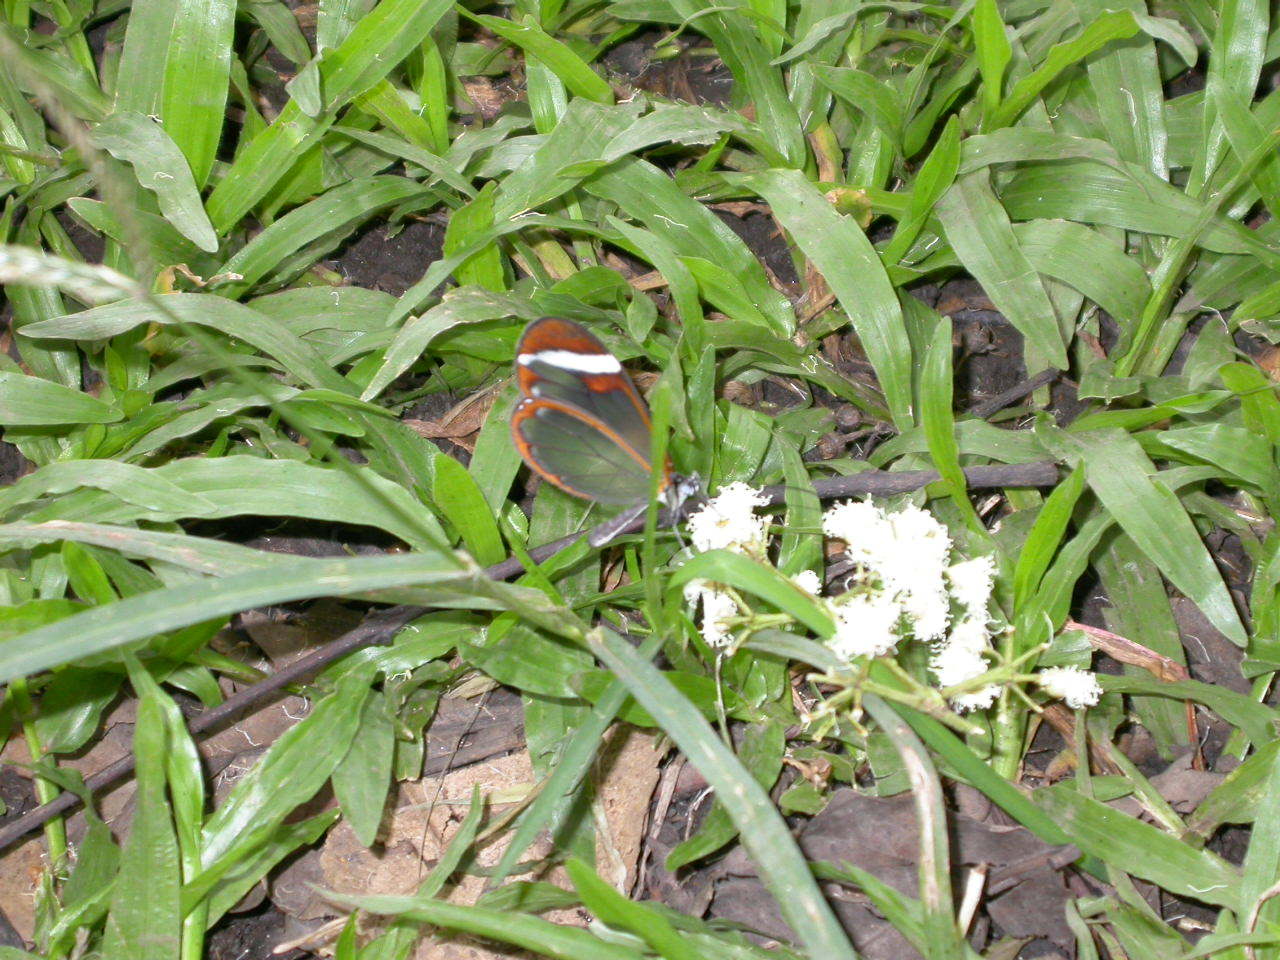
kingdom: Animalia
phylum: Arthropoda
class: Insecta
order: Lepidoptera
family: Nymphalidae
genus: Greta
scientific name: Greta morgane
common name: Thick-tipped greta
